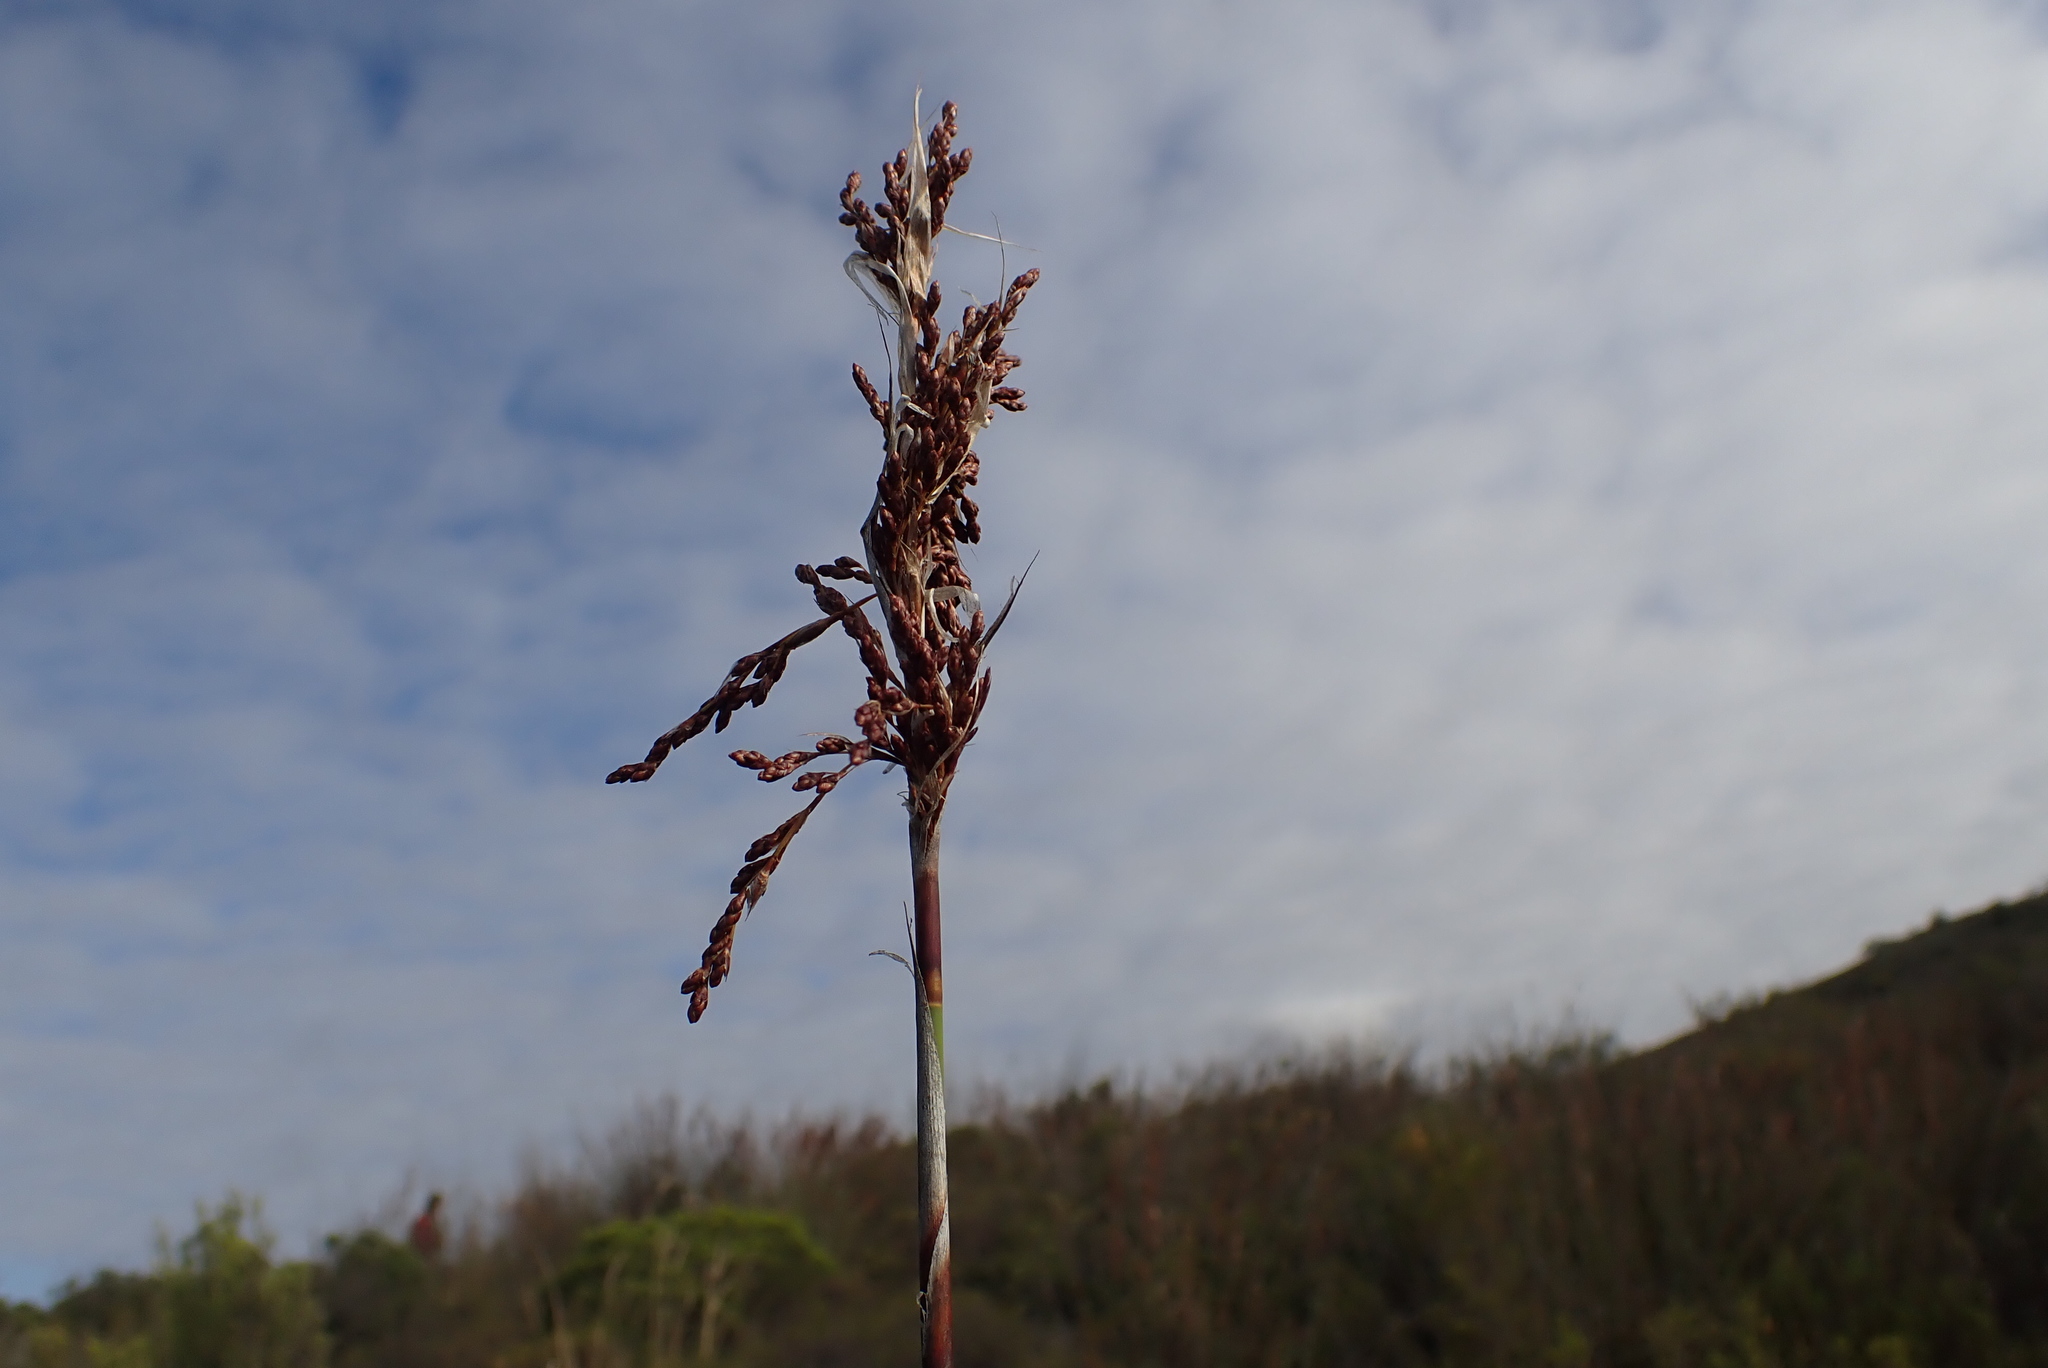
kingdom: Plantae
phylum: Tracheophyta
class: Liliopsida
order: Poales
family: Restionaceae
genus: Rhodocoma
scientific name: Rhodocoma arida
